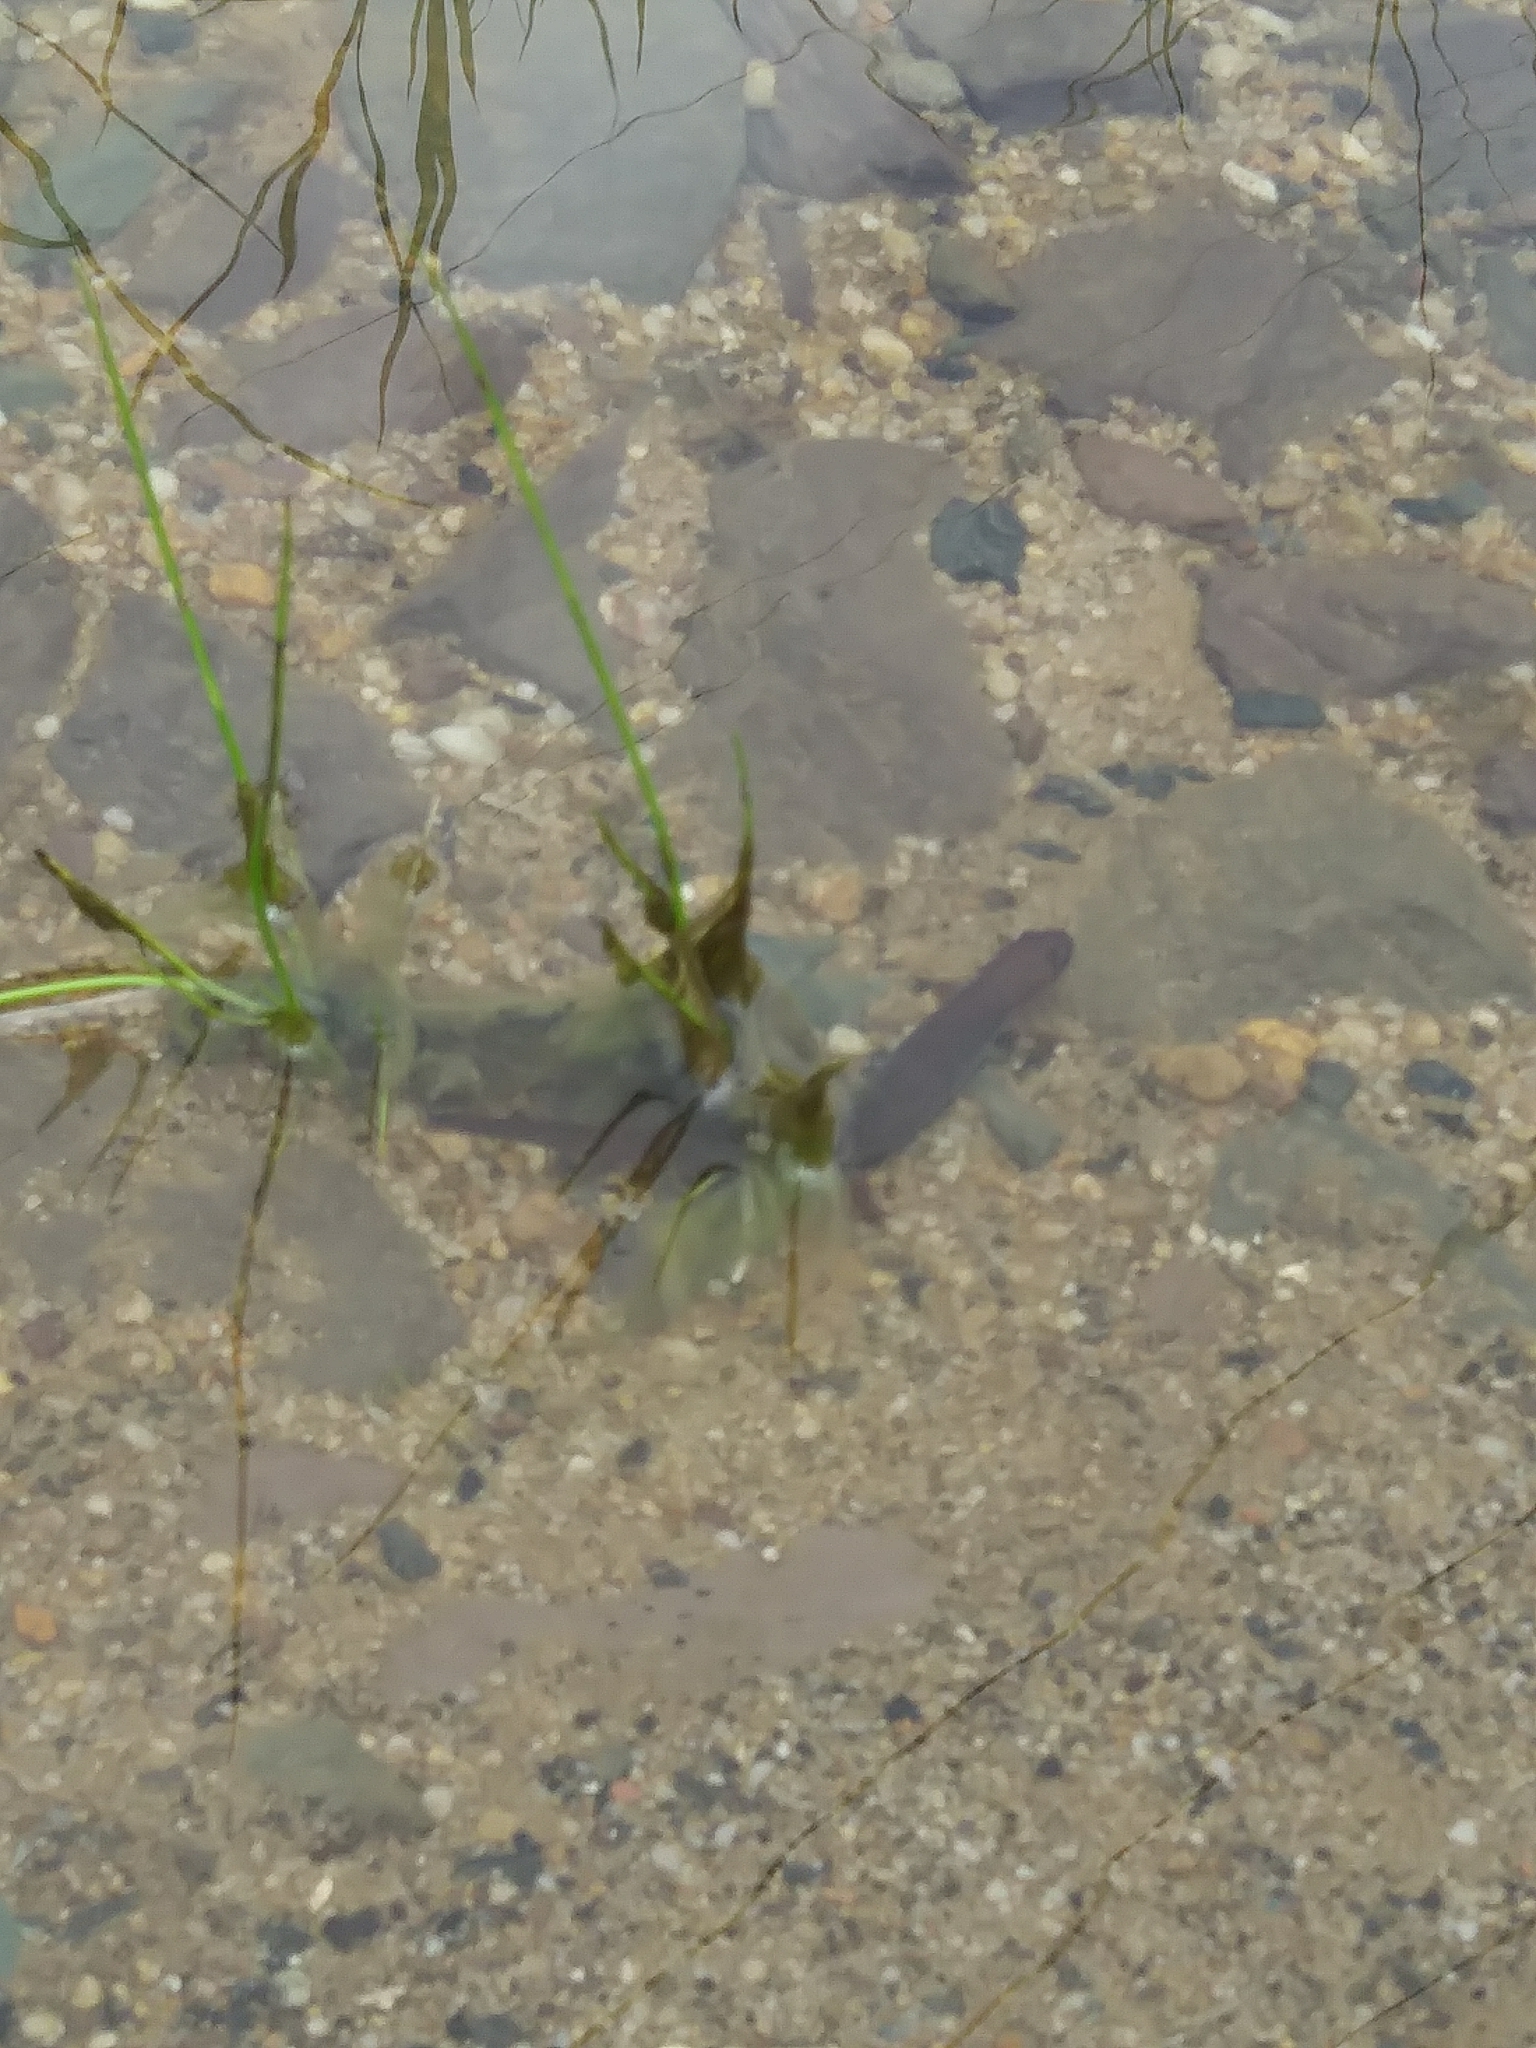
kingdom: Animalia
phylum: Chordata
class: Amphibia
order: Caudata
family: Salamandridae
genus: Notophthalmus
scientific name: Notophthalmus viridescens
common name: Eastern newt
